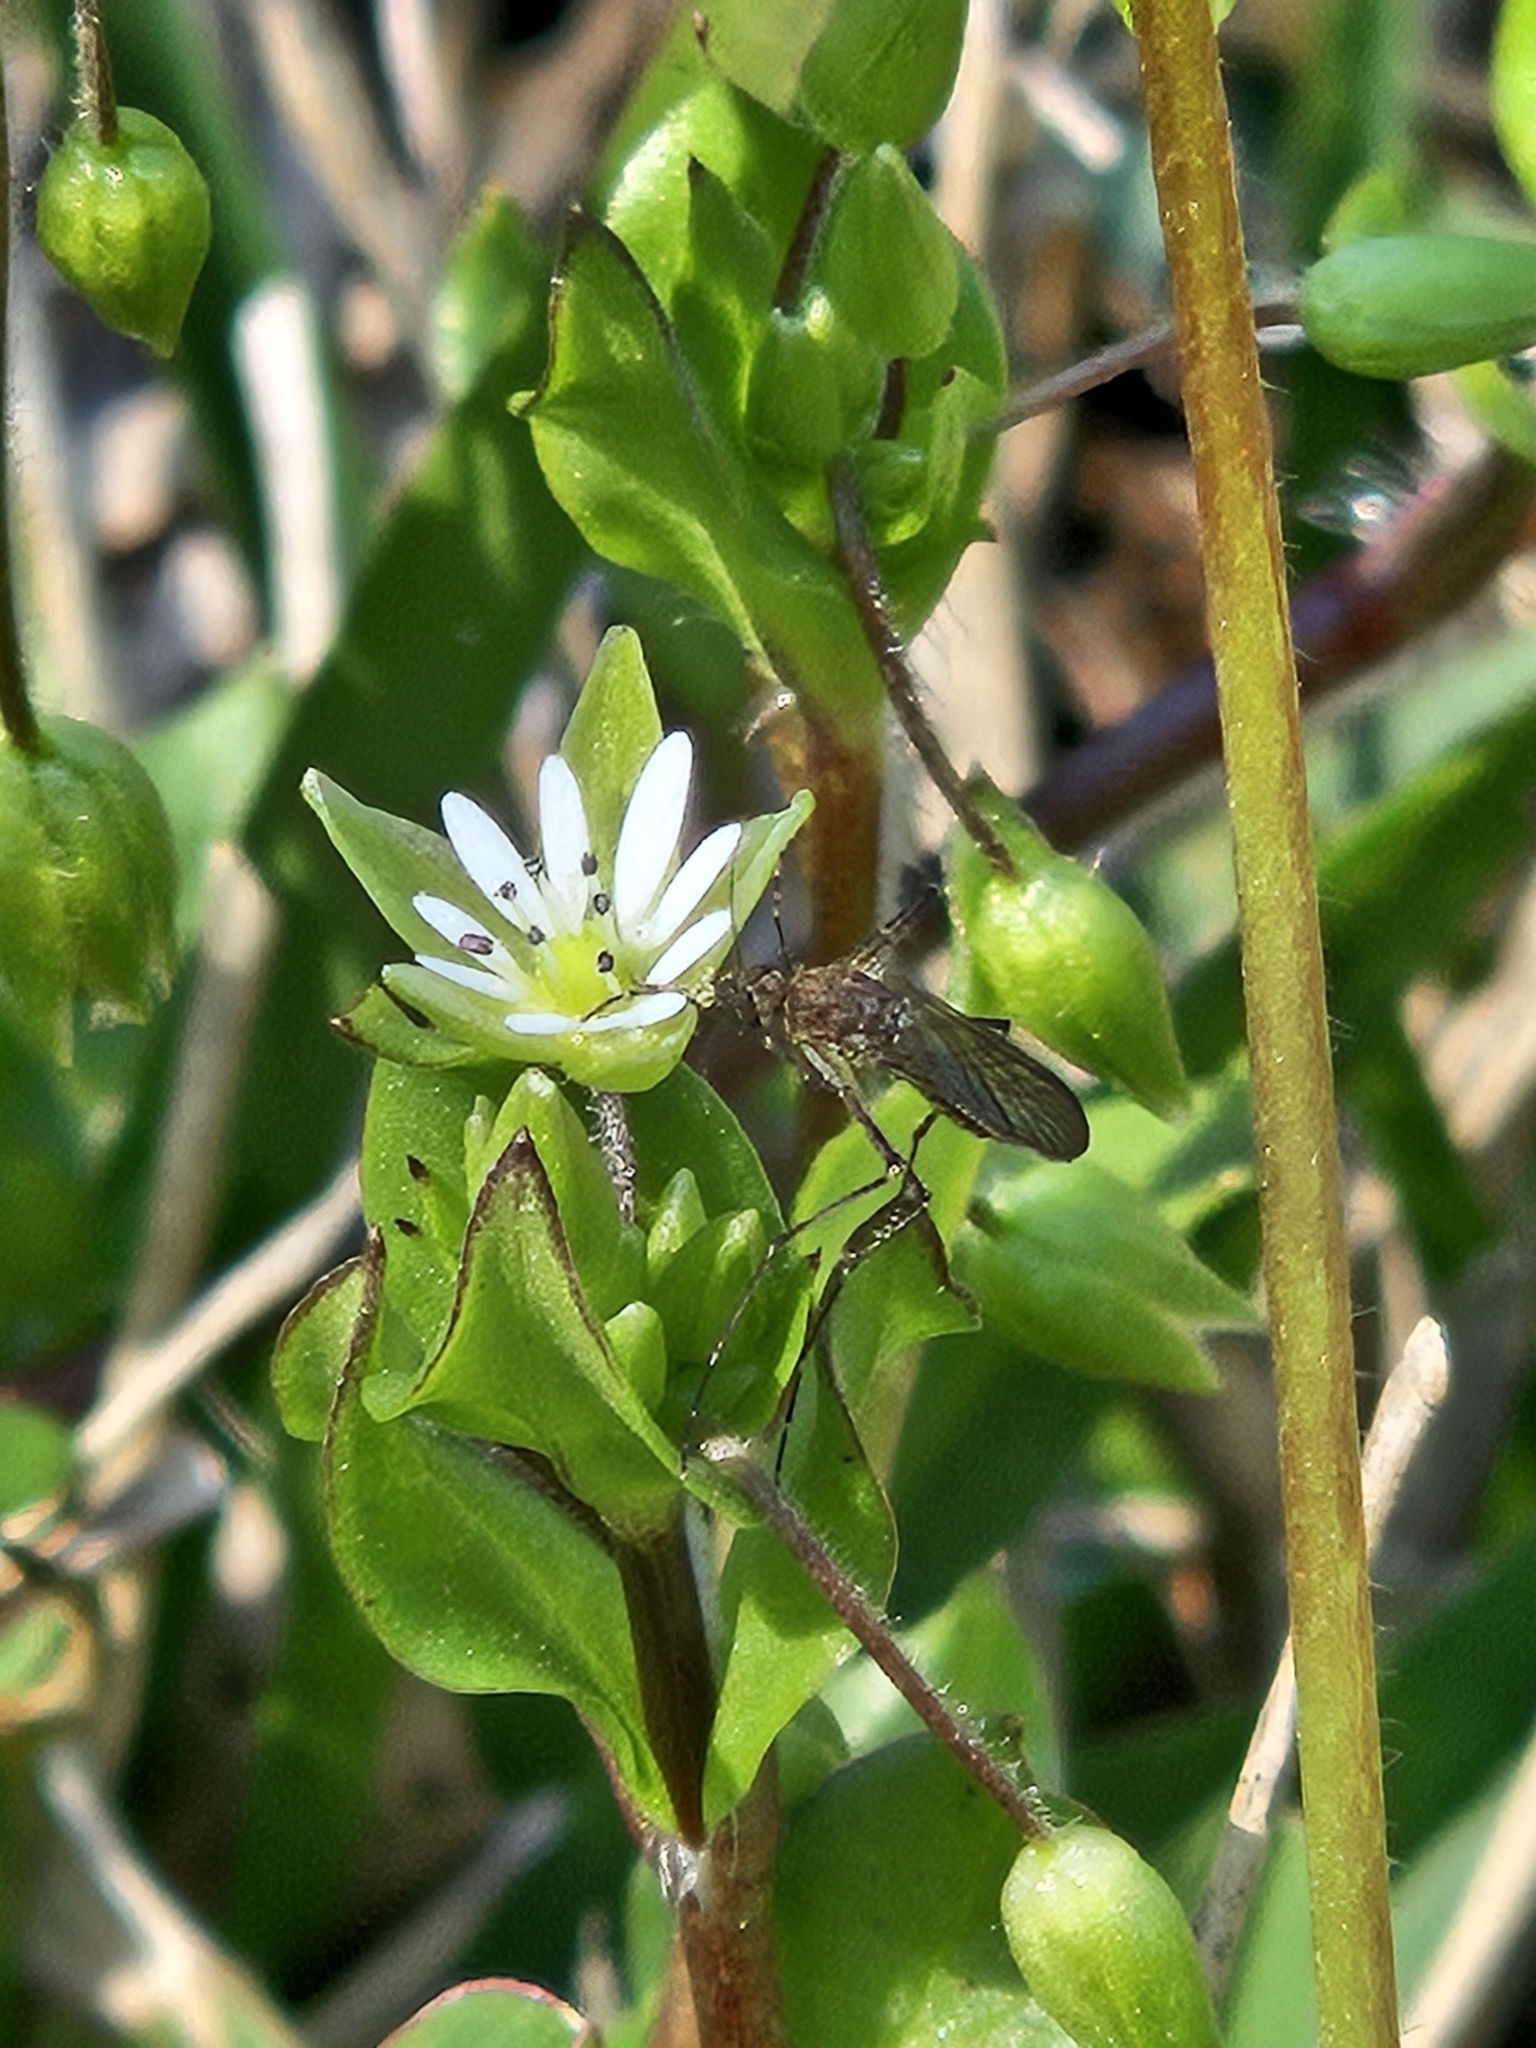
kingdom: Animalia
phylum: Arthropoda
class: Insecta
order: Diptera
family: Culicidae
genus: Aedes
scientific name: Aedes vexans
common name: Inland floodwater mosquito
